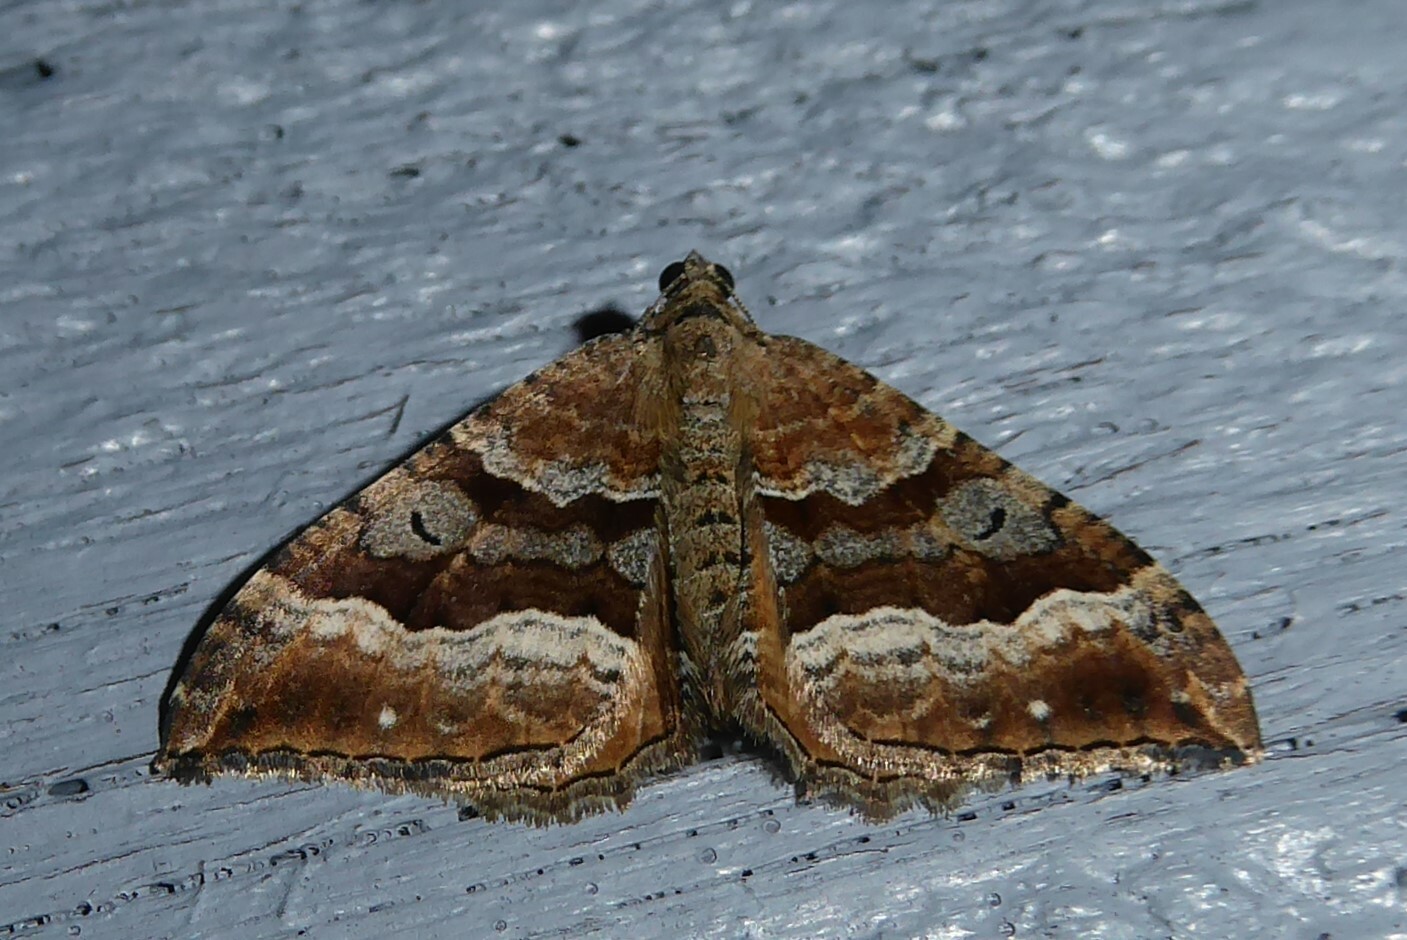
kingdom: Animalia
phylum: Arthropoda
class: Insecta
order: Lepidoptera
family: Geometridae
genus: Hydriomena
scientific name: Hydriomena deltoidata
